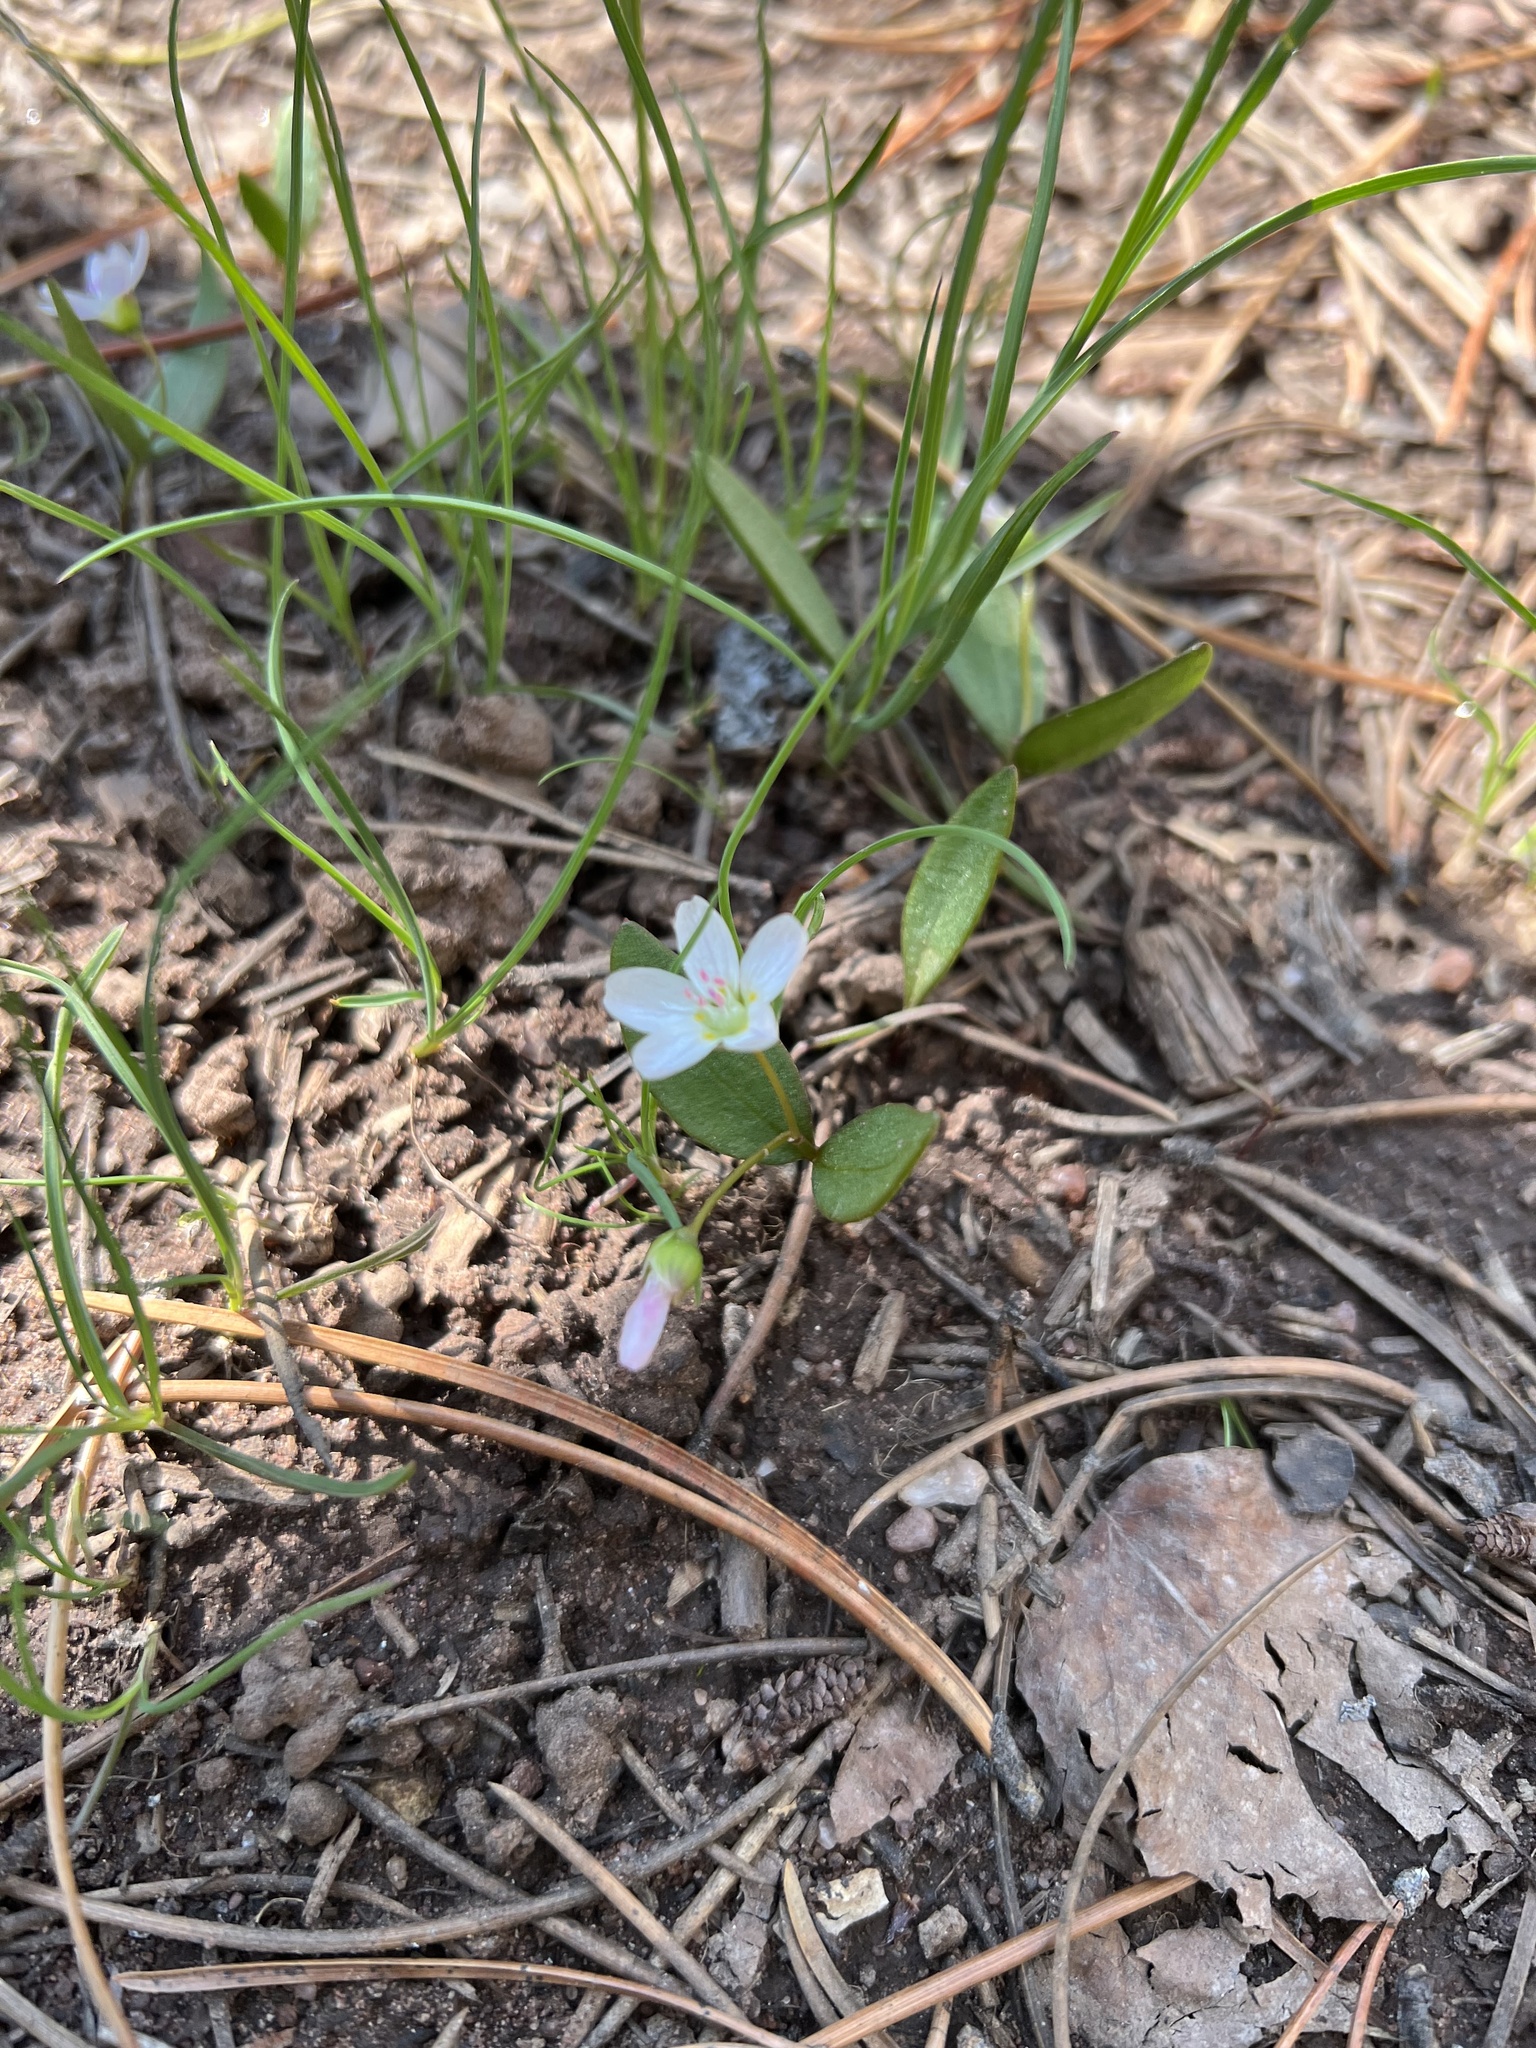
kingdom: Plantae
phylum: Tracheophyta
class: Magnoliopsida
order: Caryophyllales
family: Montiaceae
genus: Claytonia
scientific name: Claytonia lanceolata
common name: Western spring-beauty
